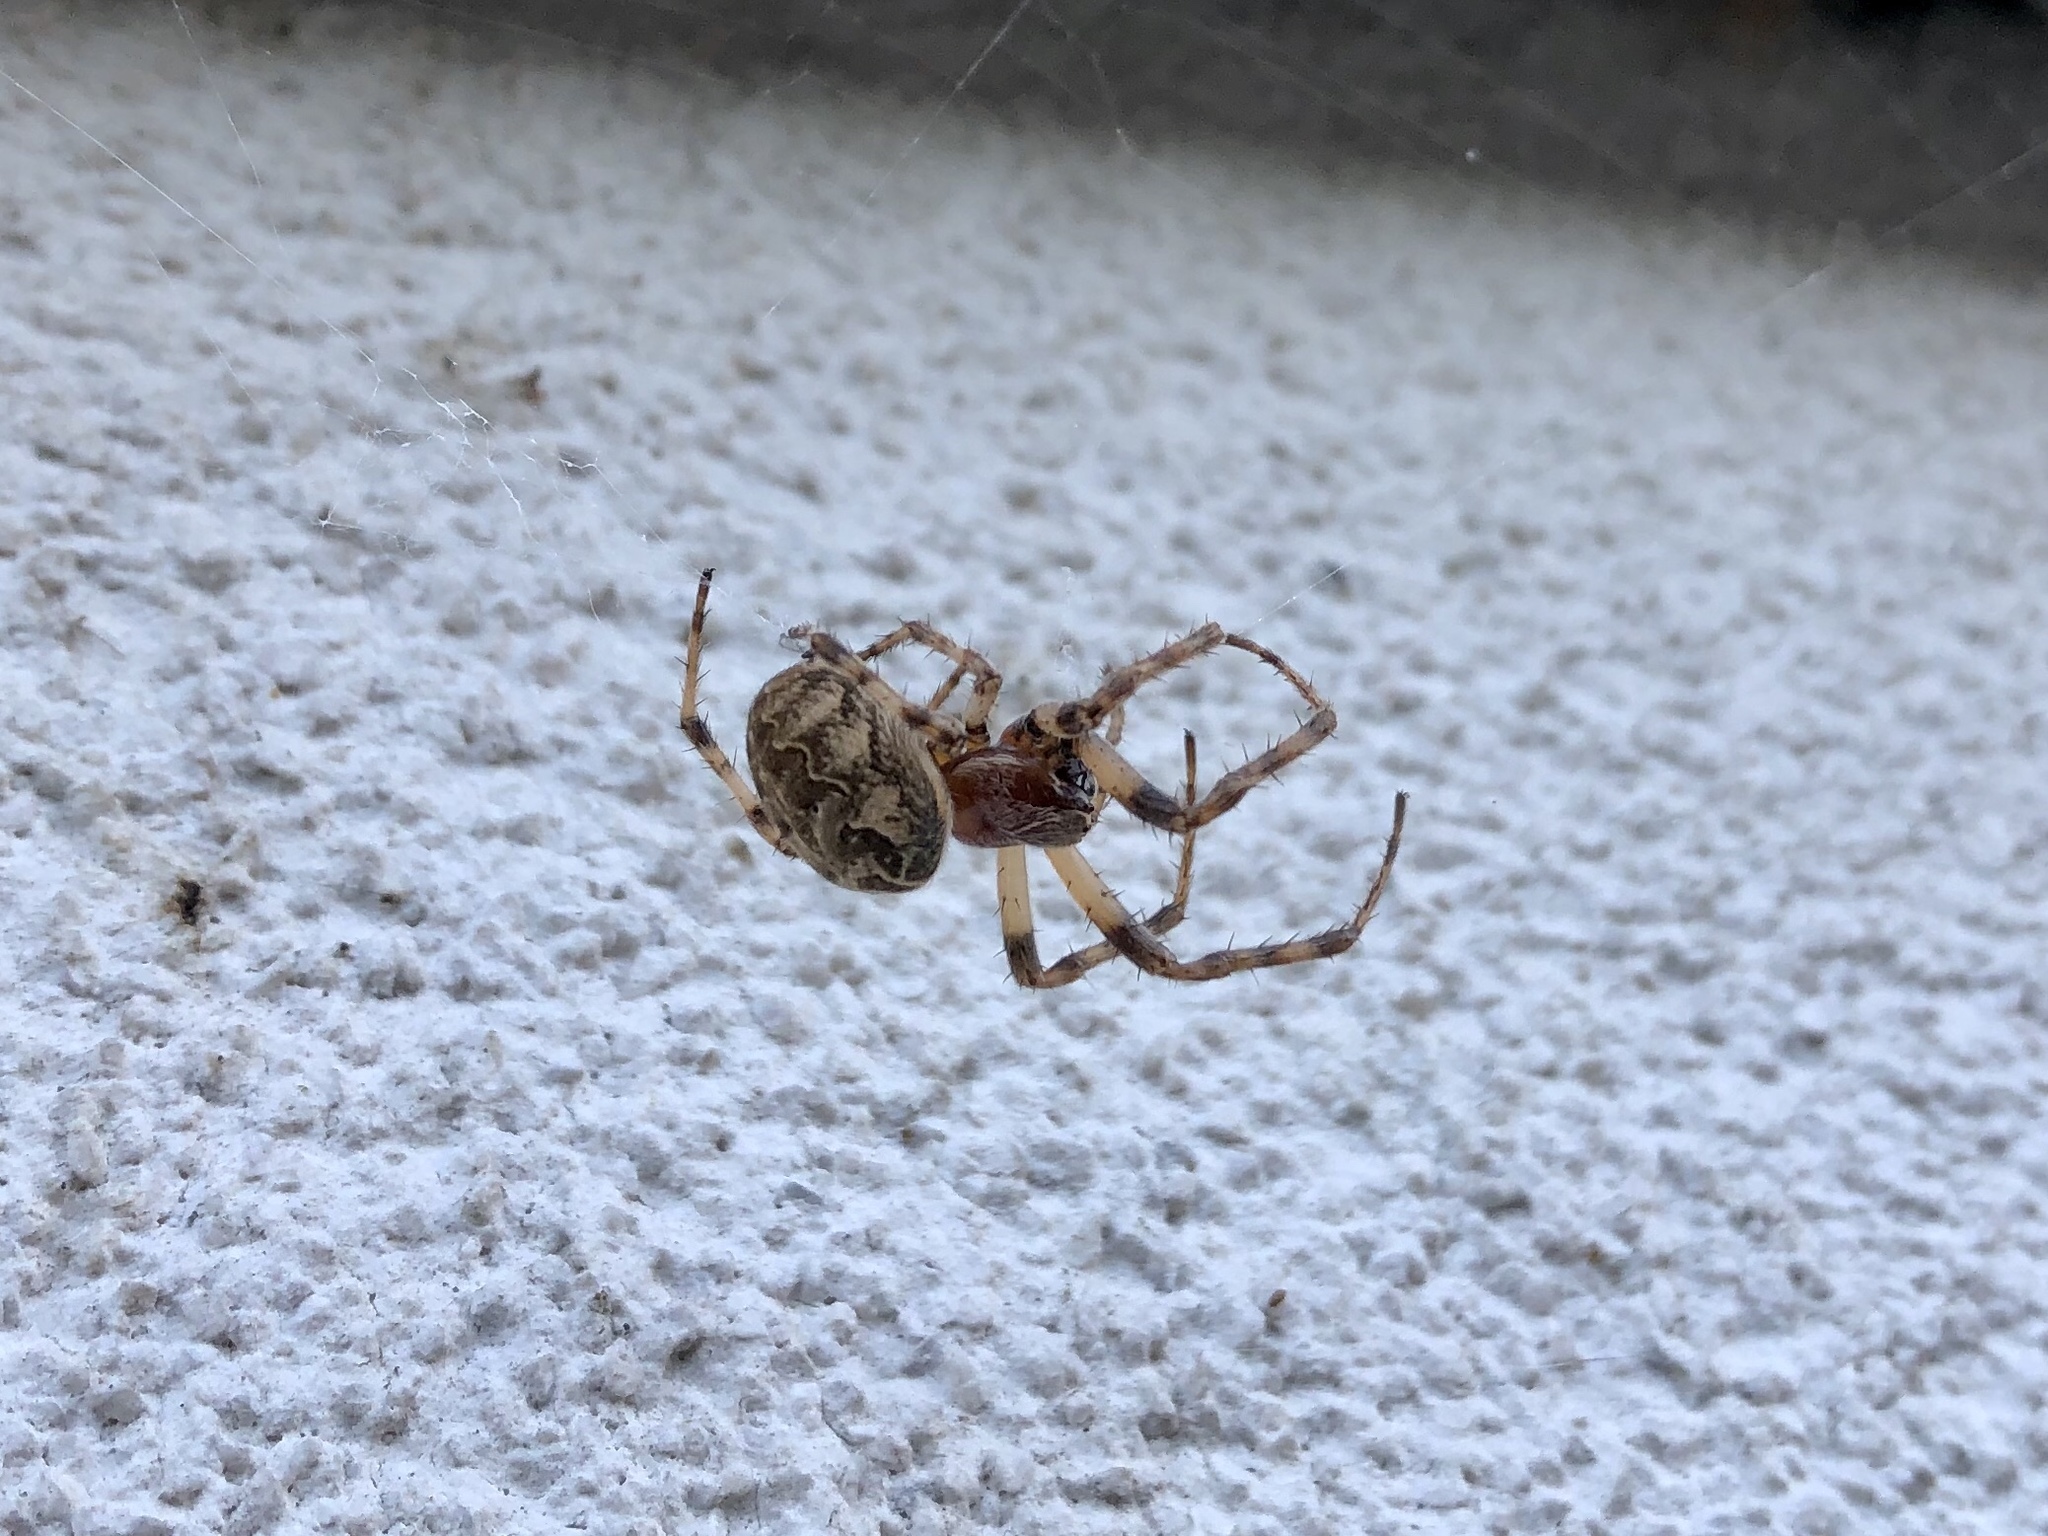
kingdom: Animalia
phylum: Arthropoda
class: Arachnida
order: Araneae
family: Araneidae
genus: Larinioides
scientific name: Larinioides sclopetarius
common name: Bridge orbweaver
